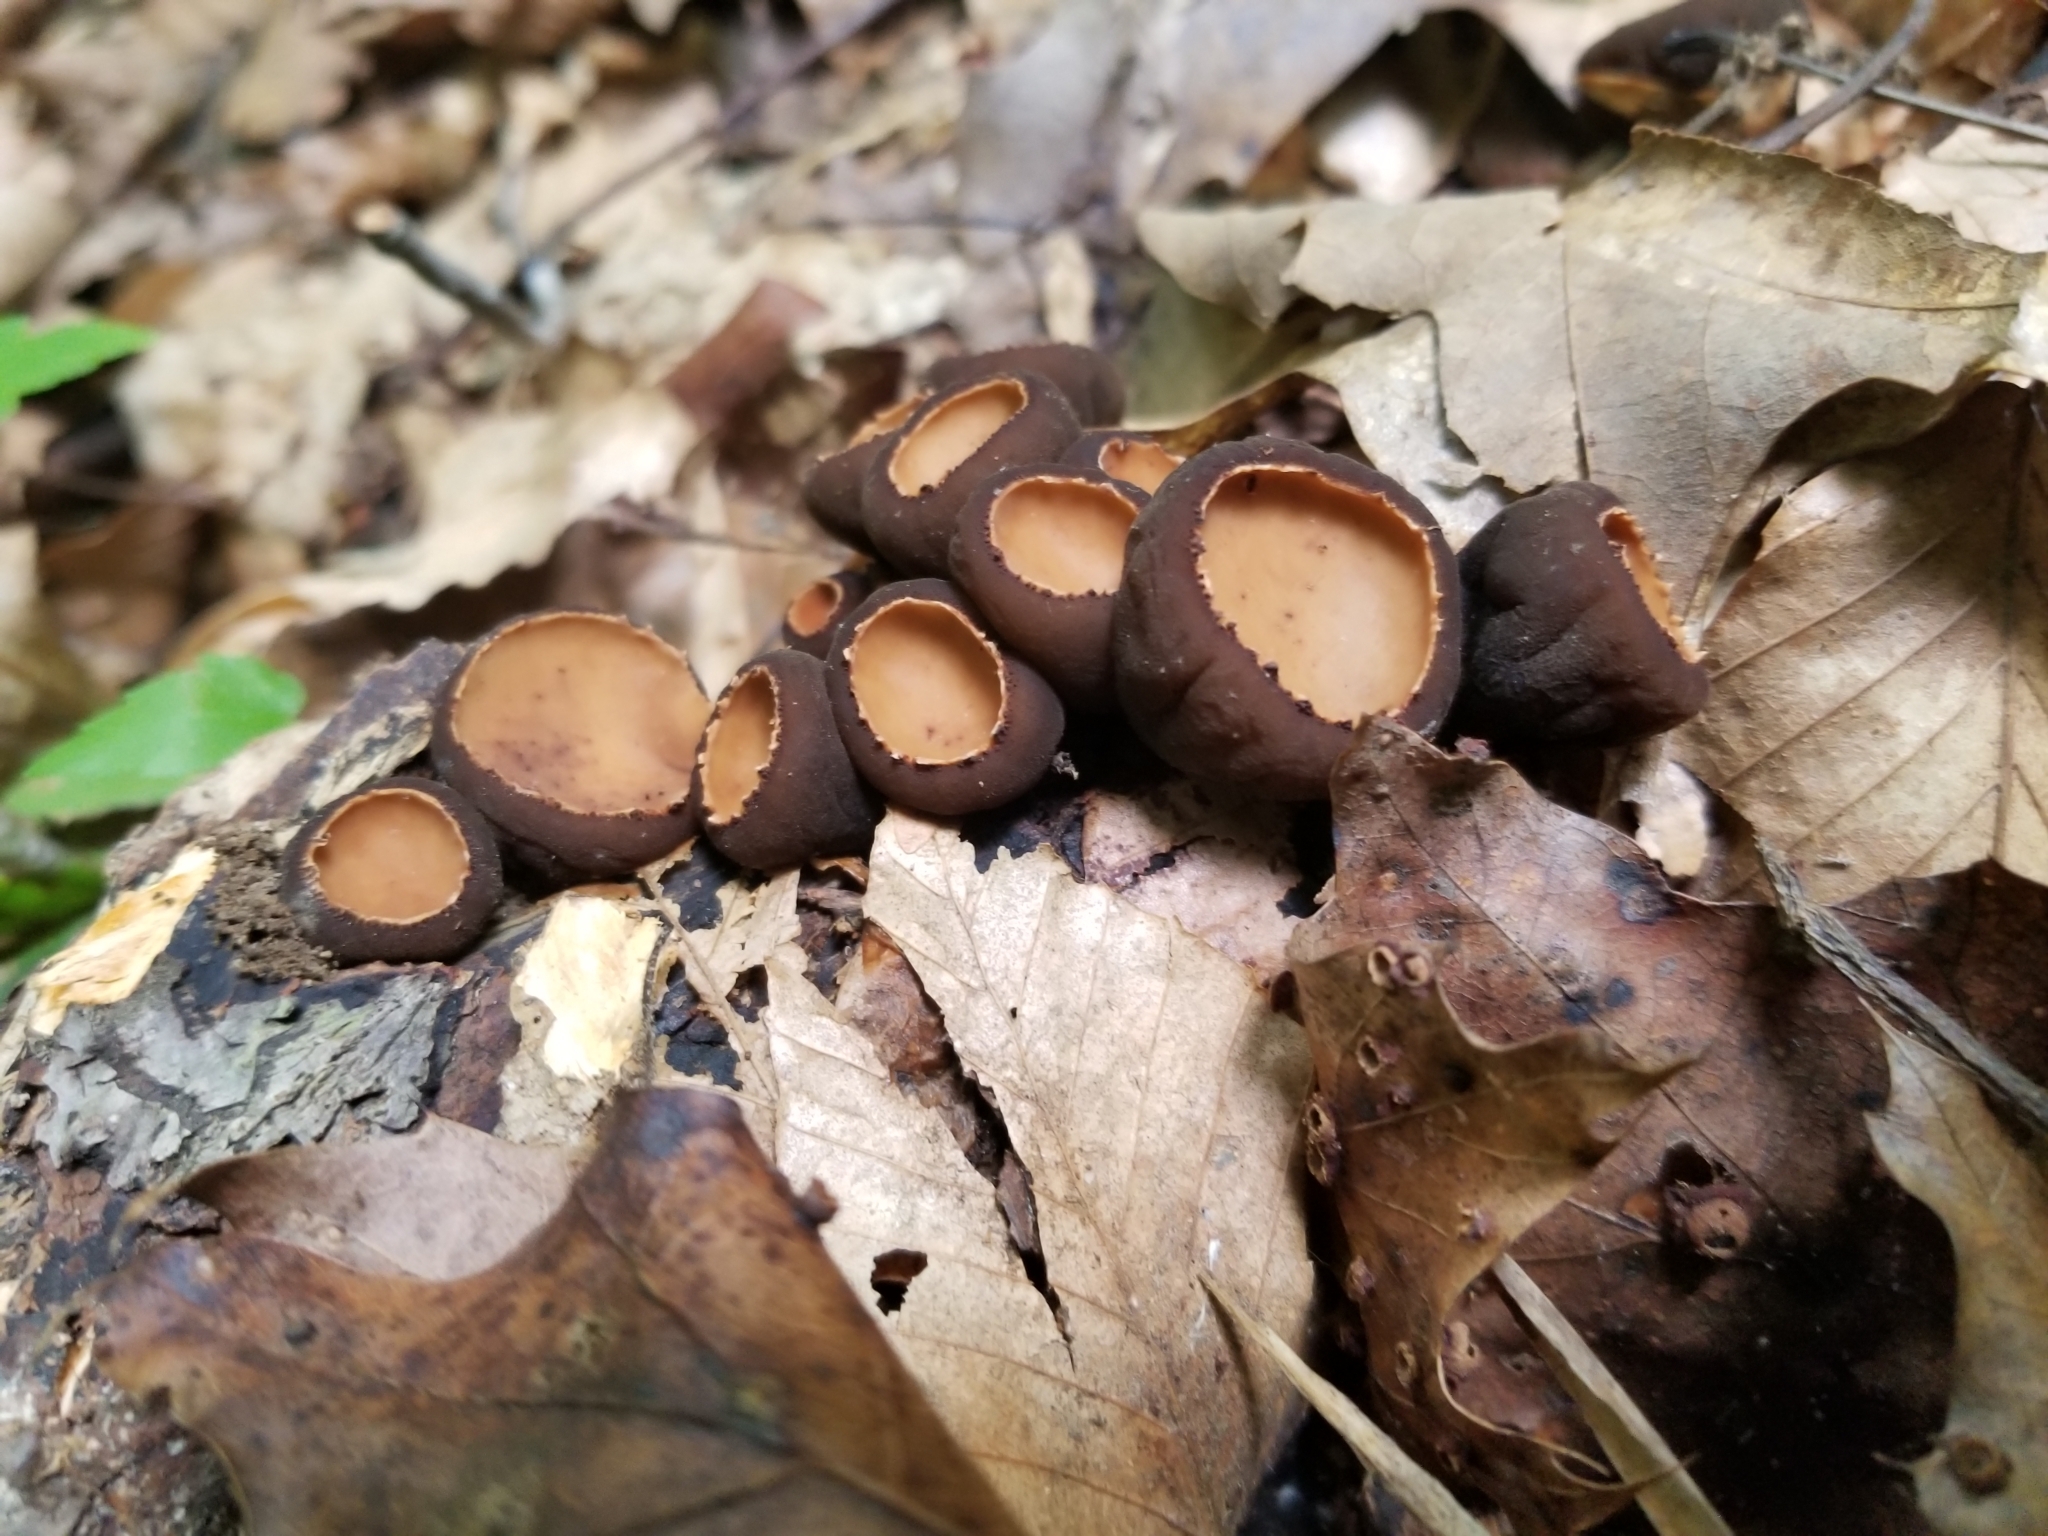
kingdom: Fungi
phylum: Ascomycota
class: Pezizomycetes
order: Pezizales
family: Sarcosomataceae
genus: Galiella
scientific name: Galiella rufa
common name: Hairy rubber cup
